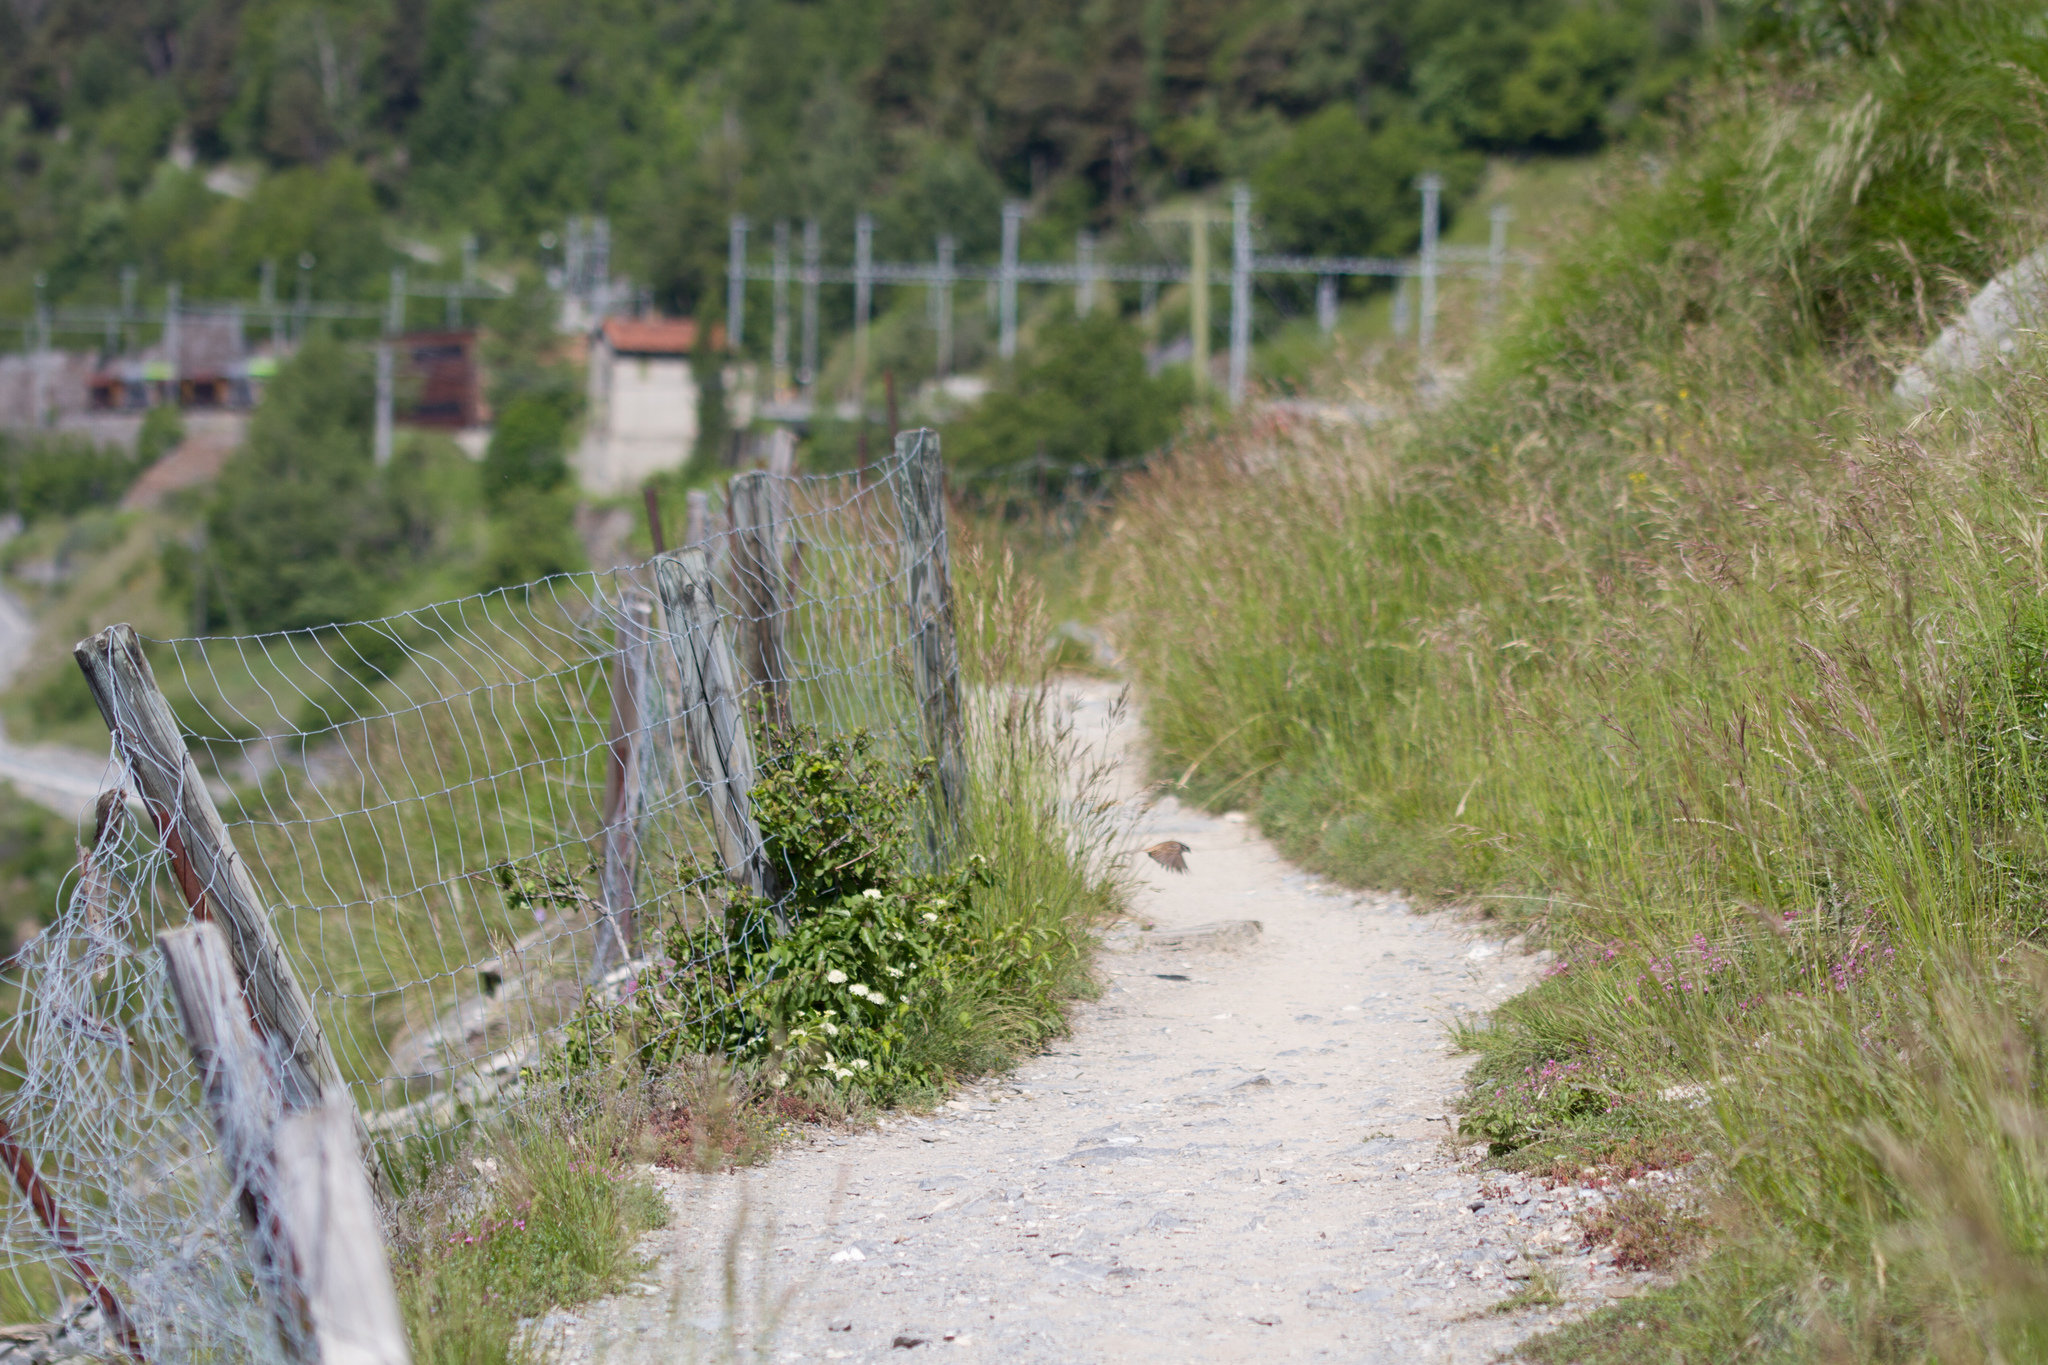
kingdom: Animalia
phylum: Chordata
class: Aves
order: Passeriformes
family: Emberizidae
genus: Emberiza
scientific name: Emberiza cia
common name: Rock bunting
